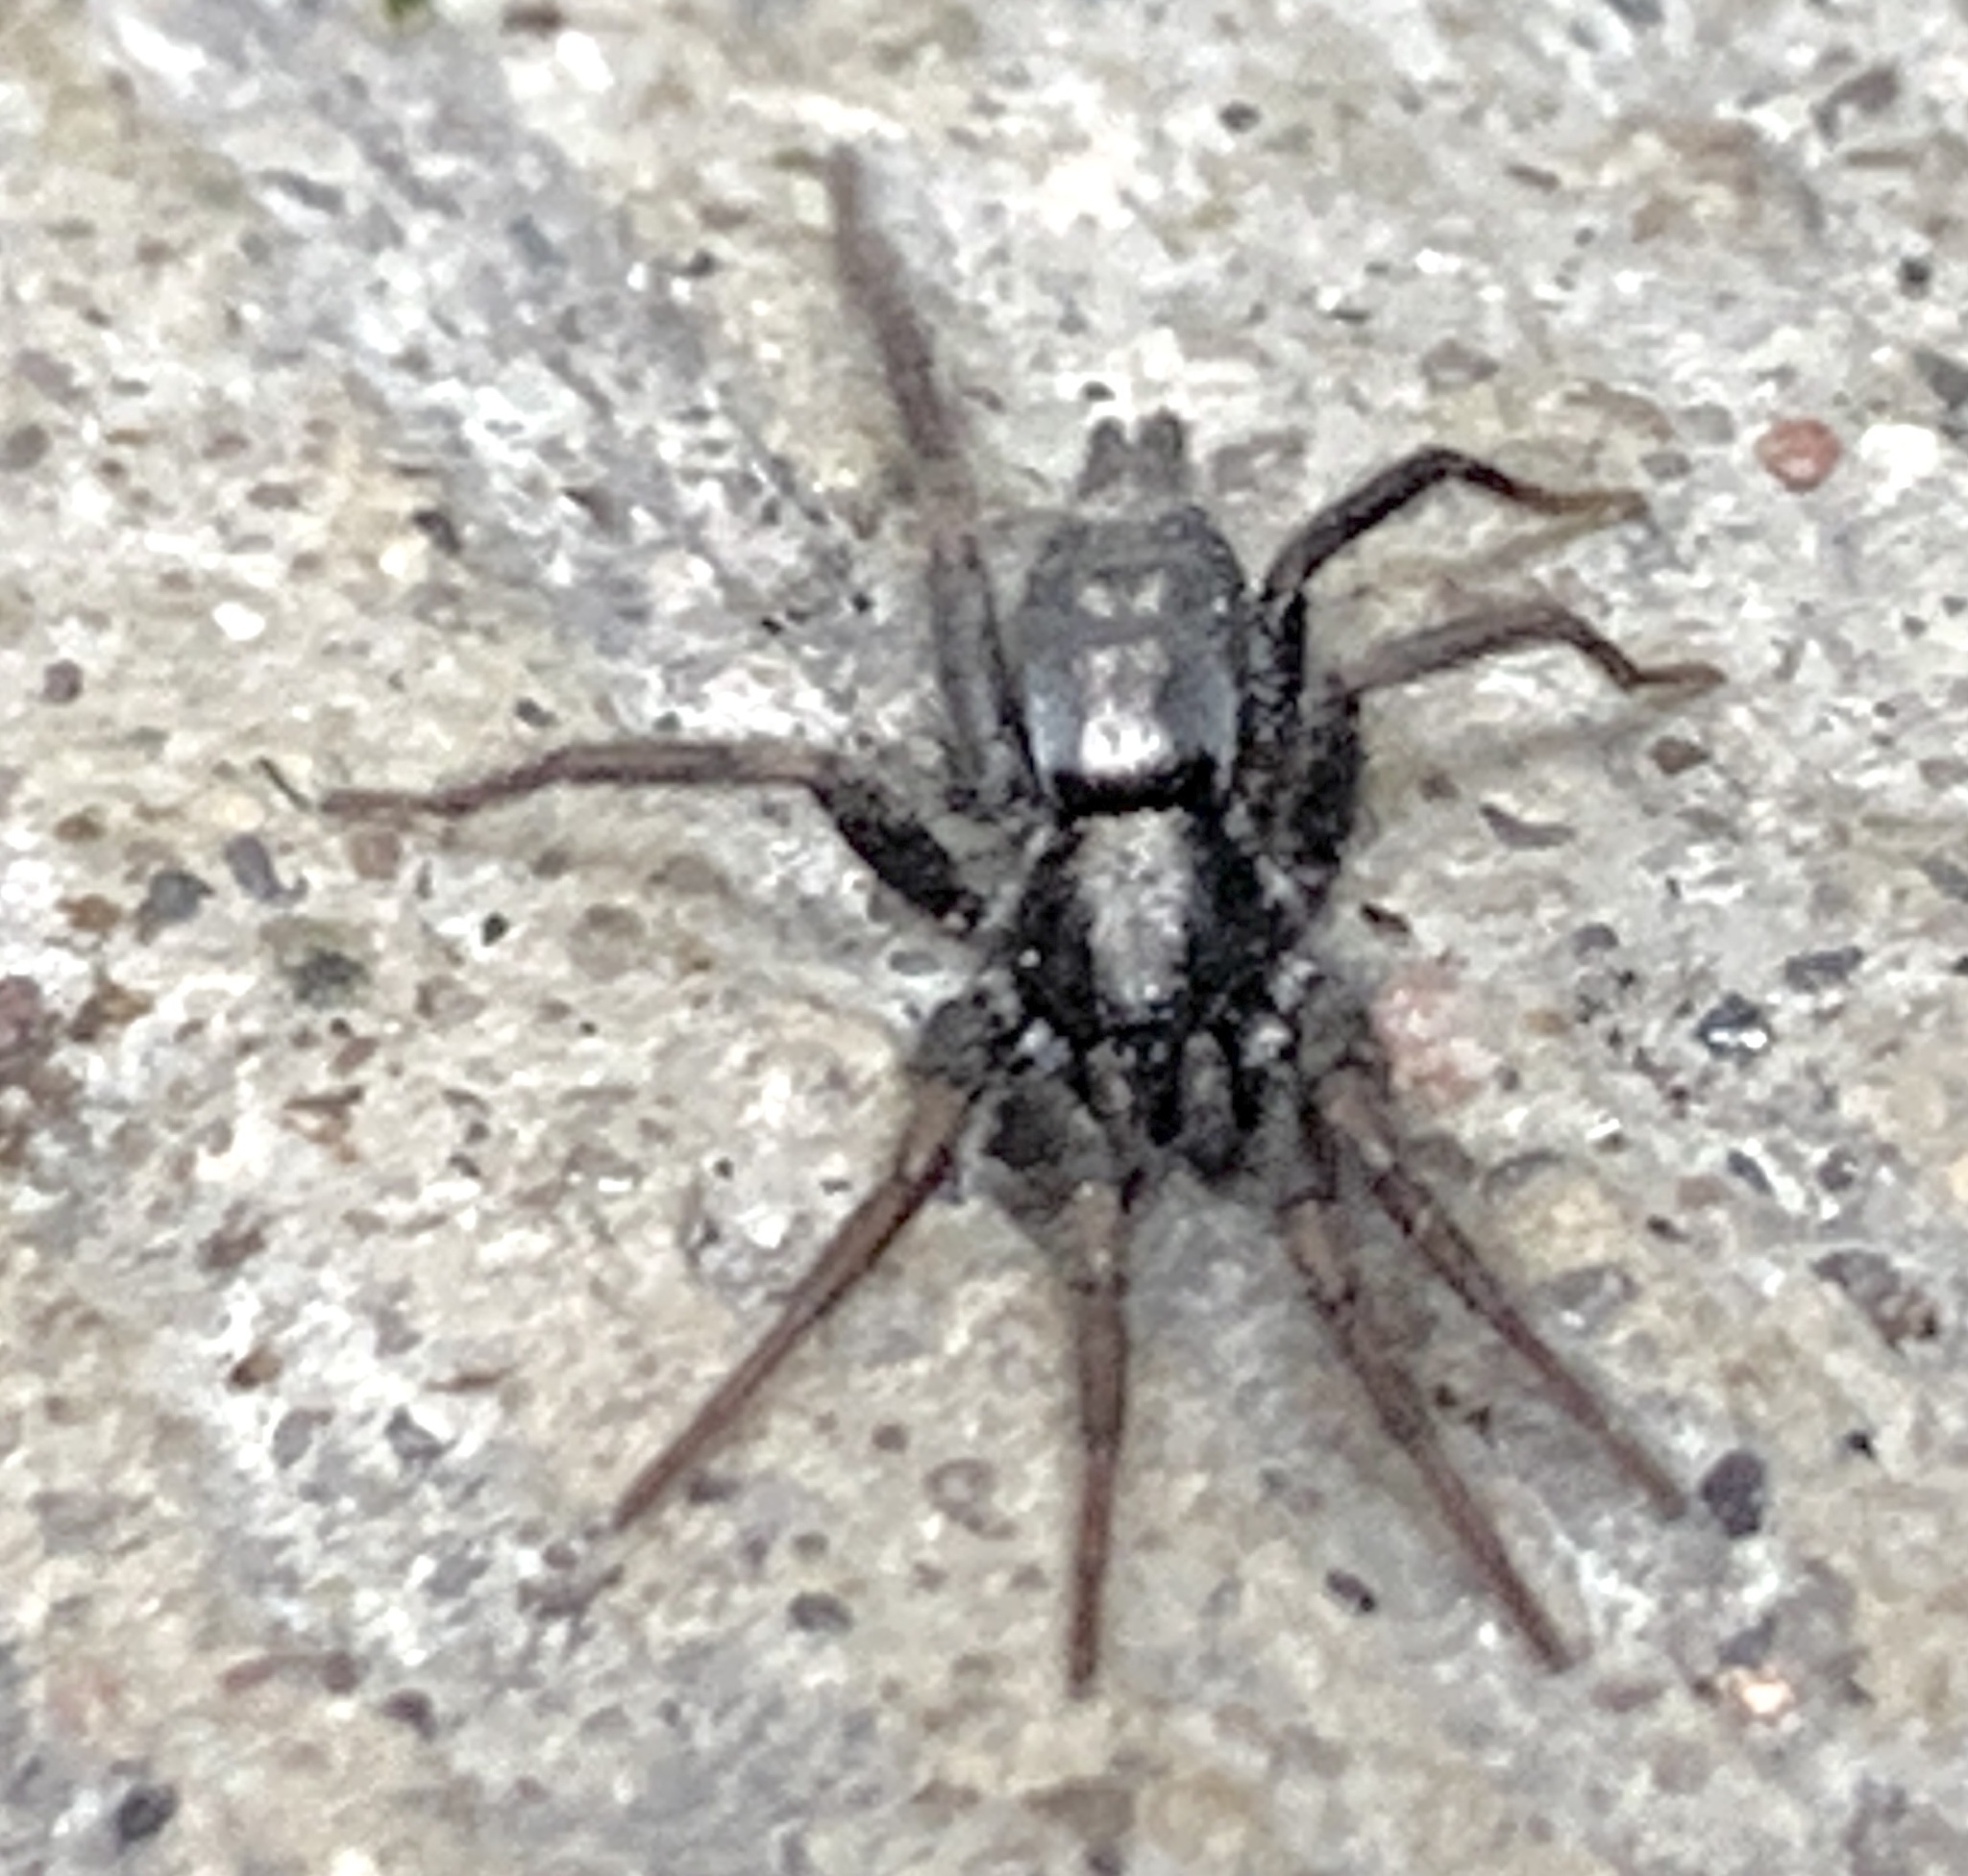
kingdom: Animalia
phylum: Arthropoda
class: Arachnida
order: Araneae
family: Gnaphosidae
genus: Herpyllus
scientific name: Herpyllus ecclesiasticus
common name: Eastern parson spider
